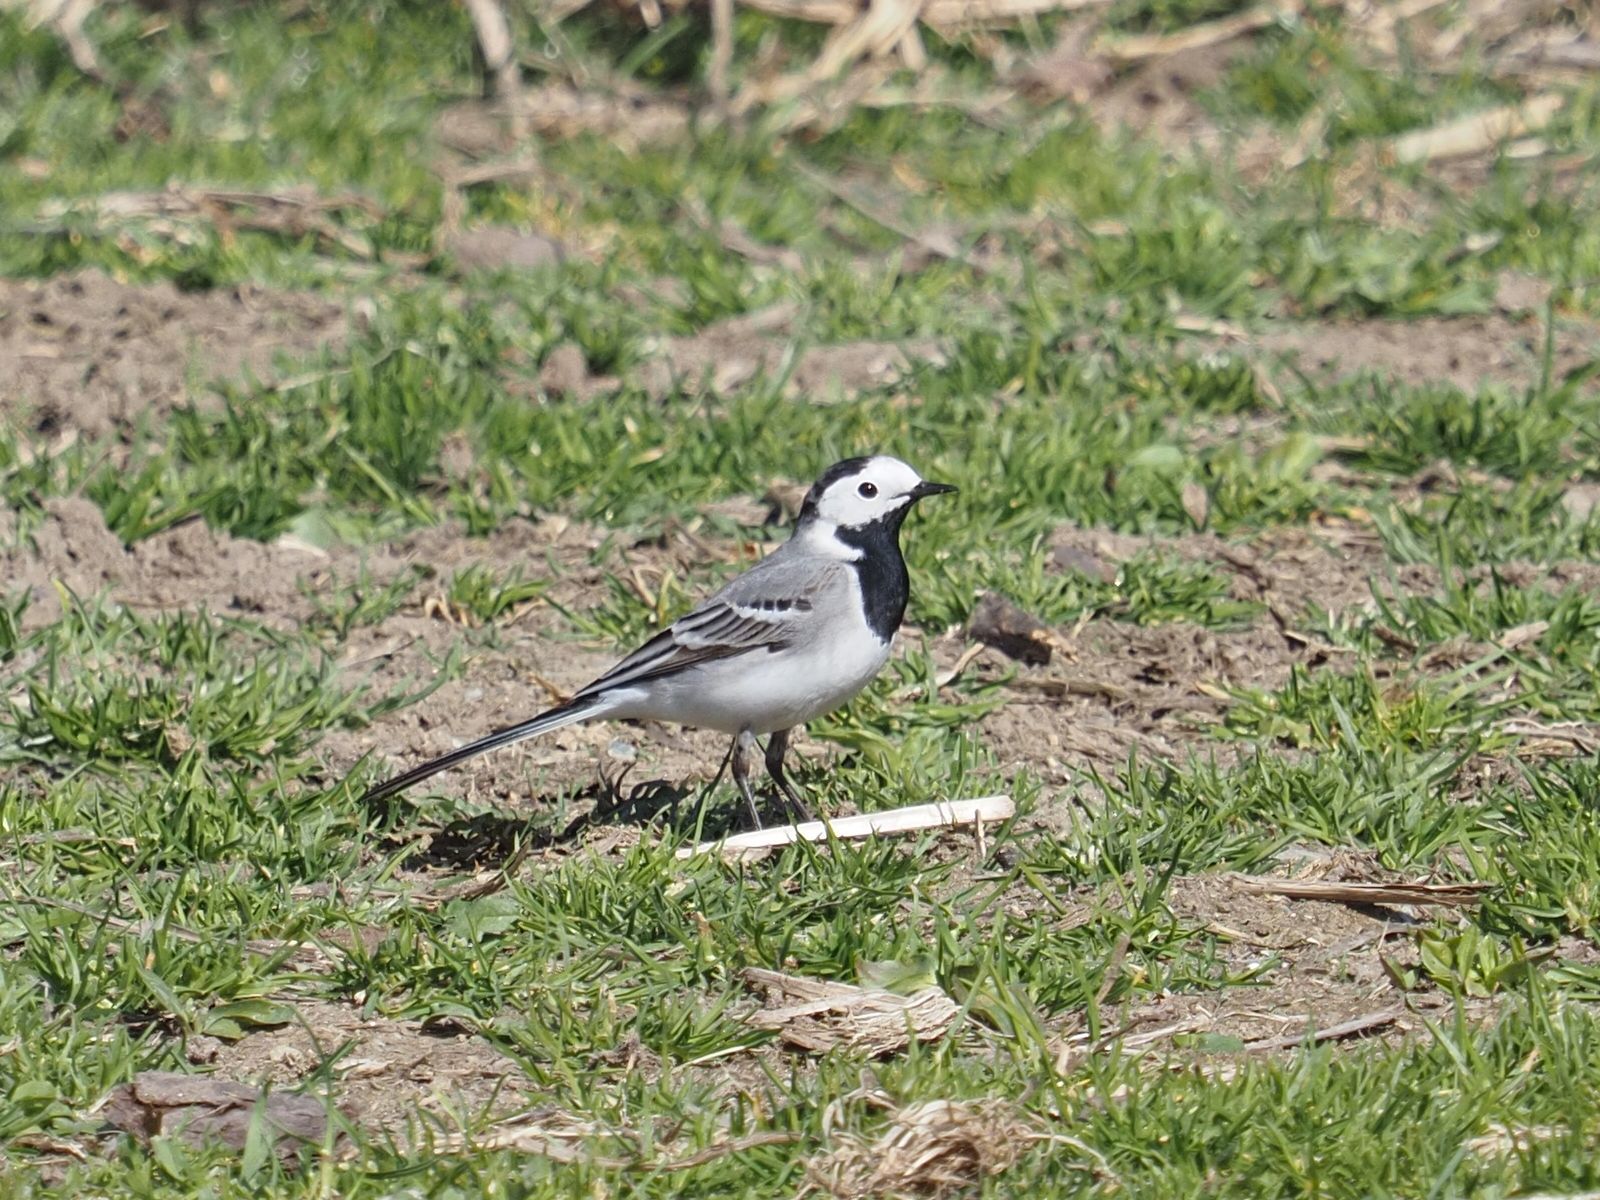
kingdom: Animalia
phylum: Chordata
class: Aves
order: Passeriformes
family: Motacillidae
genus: Motacilla
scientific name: Motacilla alba
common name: White wagtail
